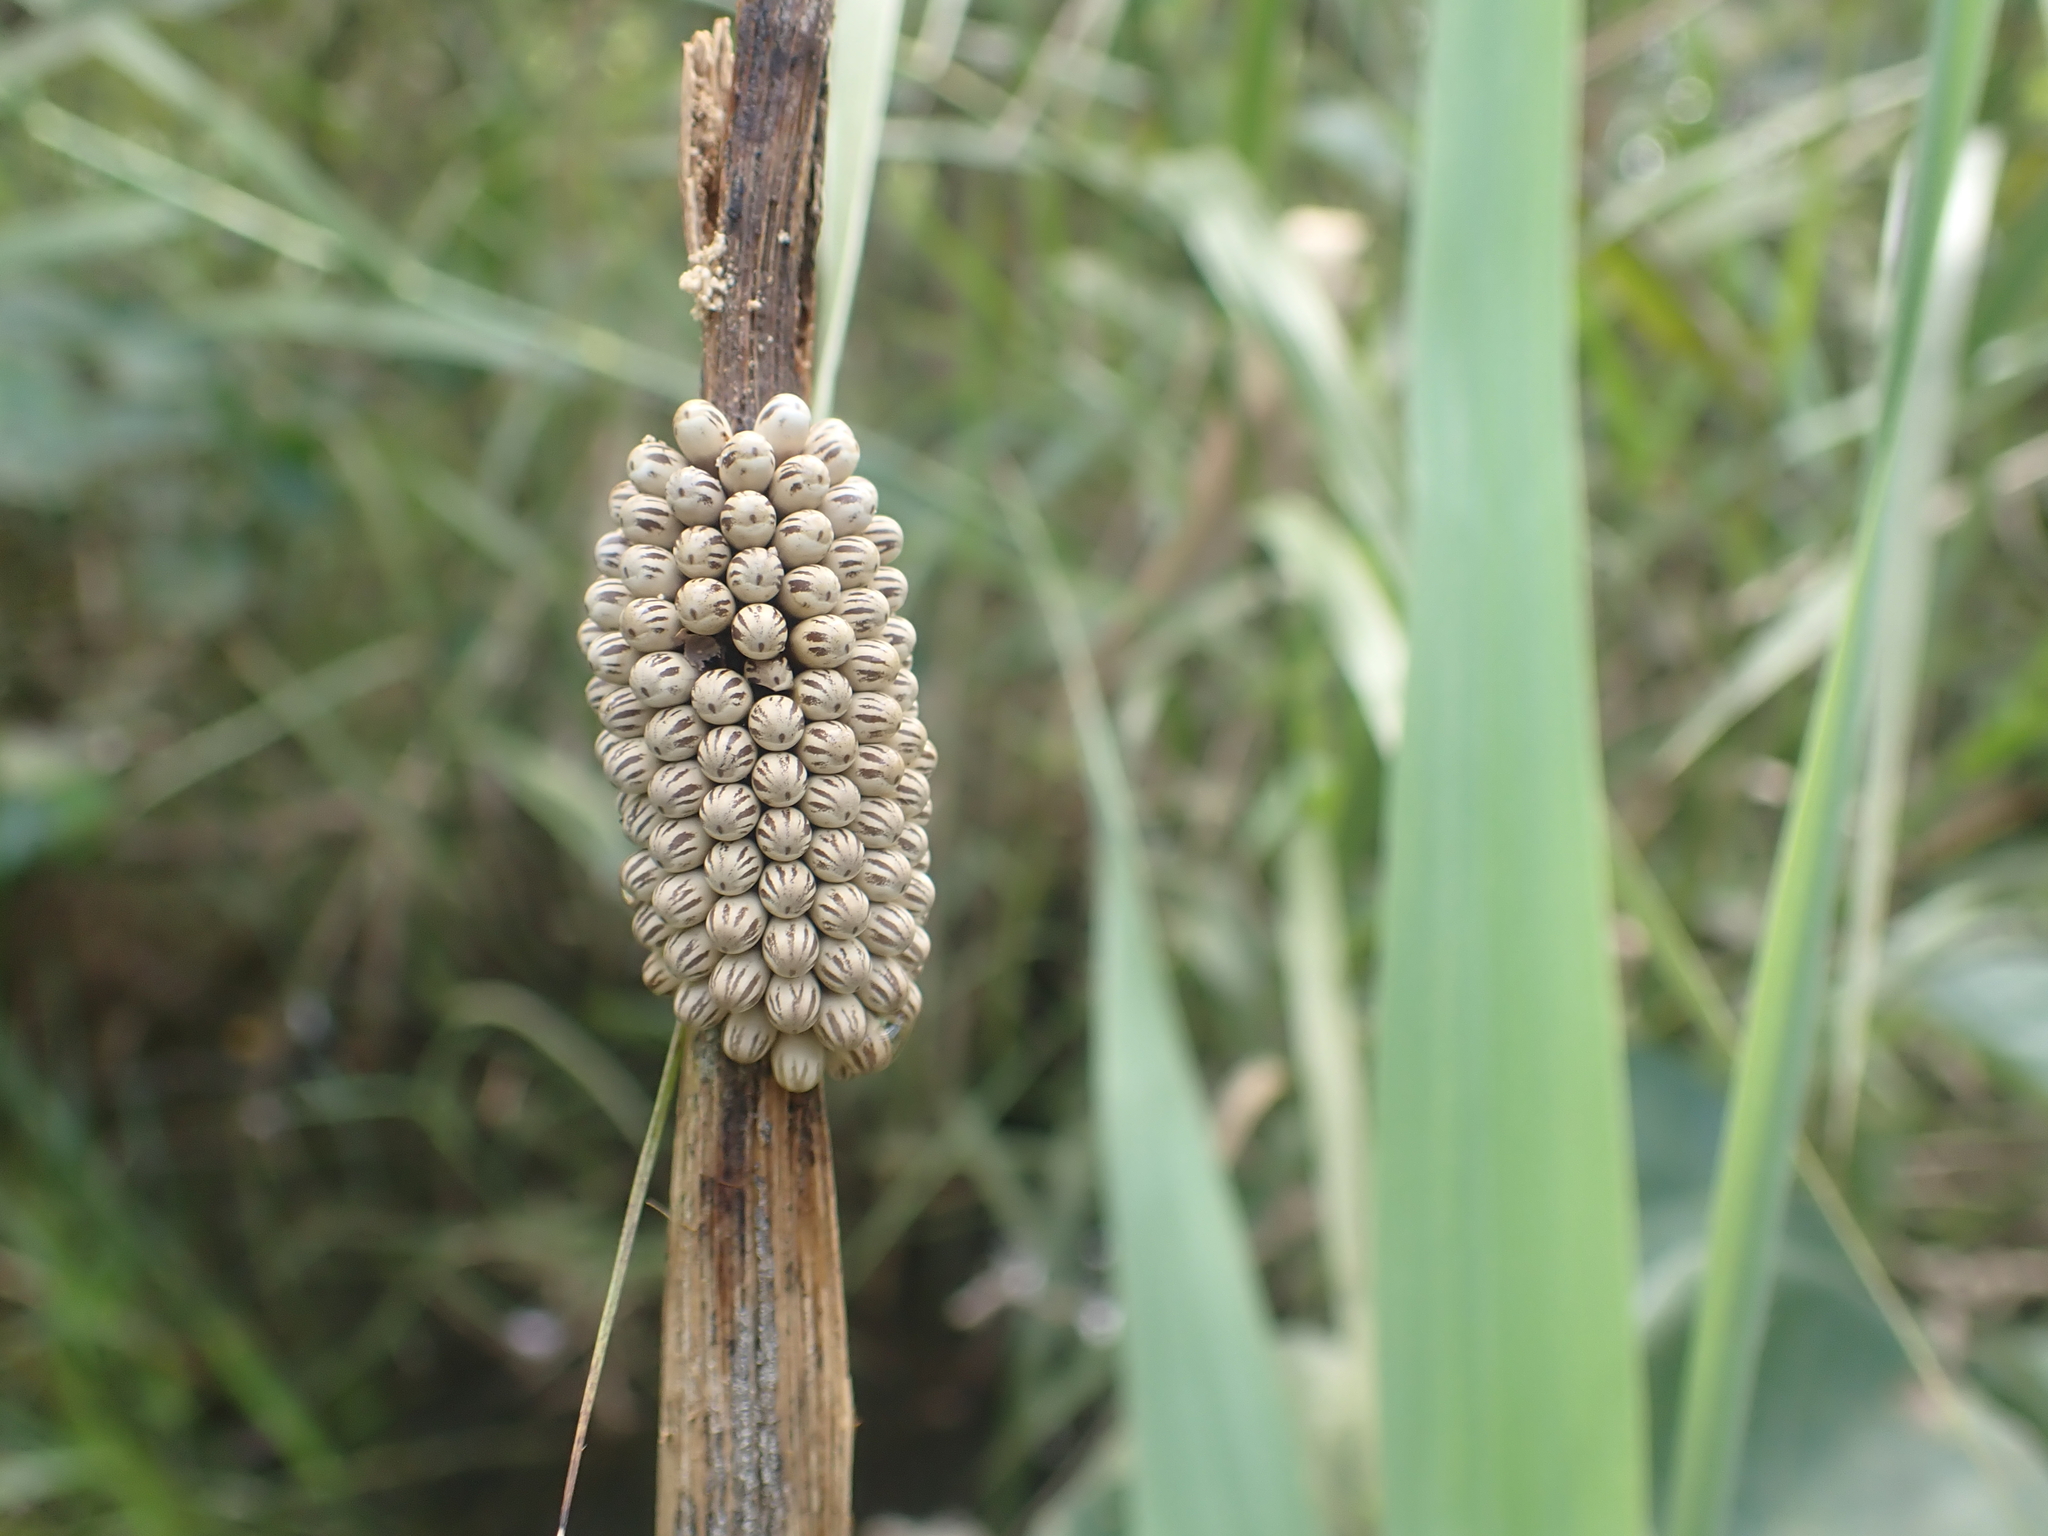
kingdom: Animalia
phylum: Arthropoda
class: Insecta
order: Hemiptera
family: Belostomatidae
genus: Lethocerus
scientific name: Lethocerus indicus
